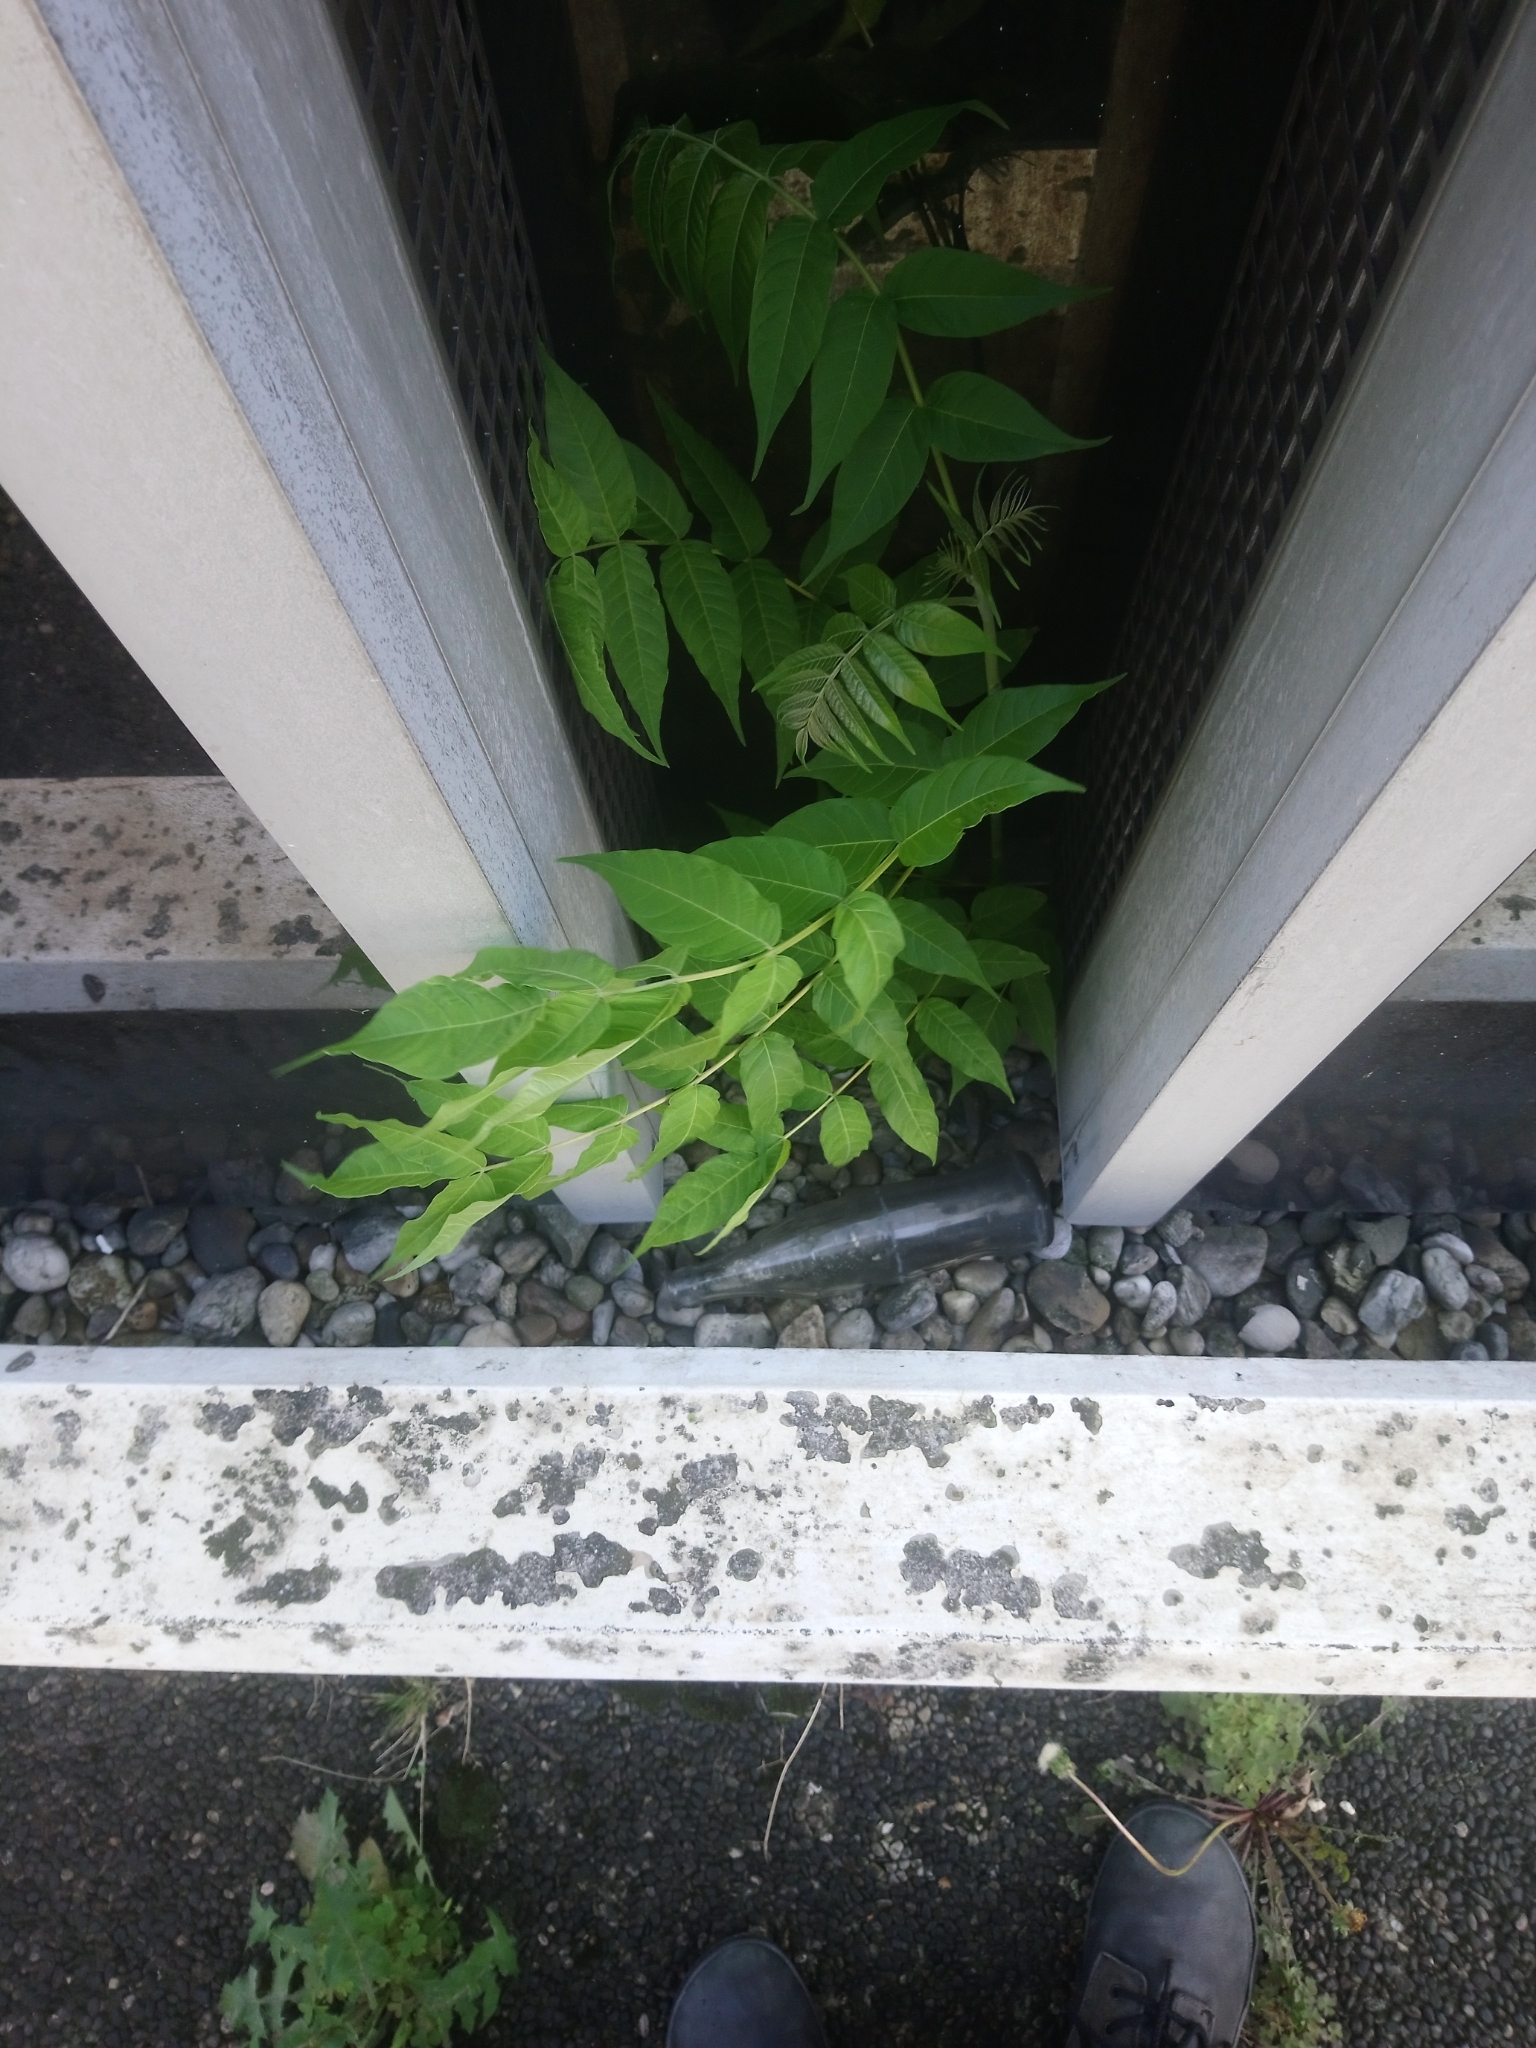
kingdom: Plantae
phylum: Tracheophyta
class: Magnoliopsida
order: Sapindales
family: Simaroubaceae
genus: Ailanthus
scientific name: Ailanthus altissima
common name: Tree-of-heaven
